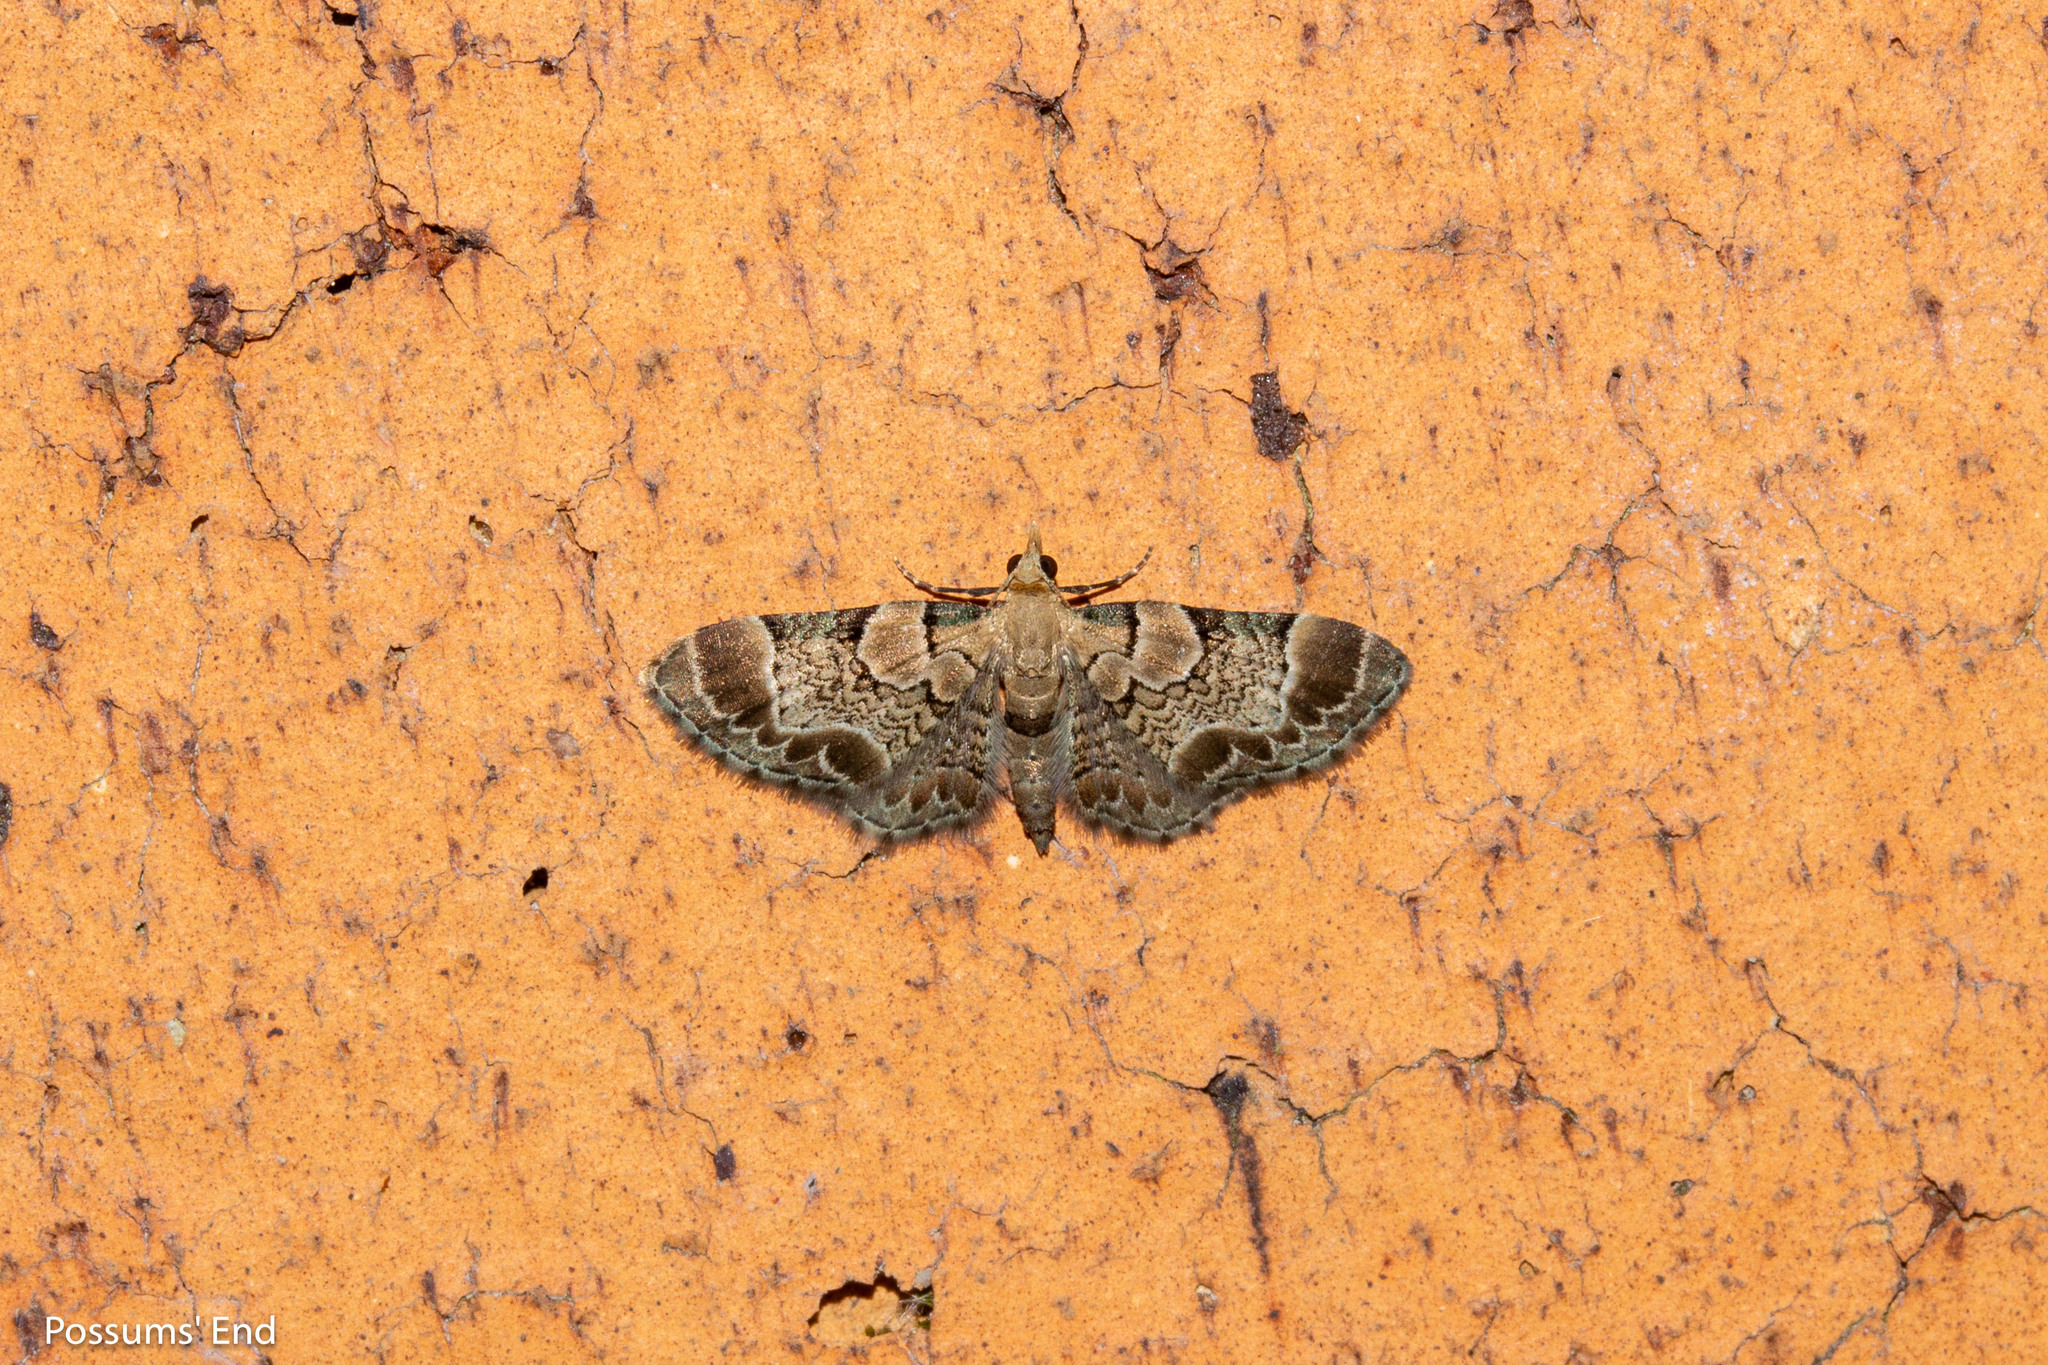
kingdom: Animalia
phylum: Arthropoda
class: Insecta
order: Lepidoptera
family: Geometridae
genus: Chloroclystis
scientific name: Chloroclystis
